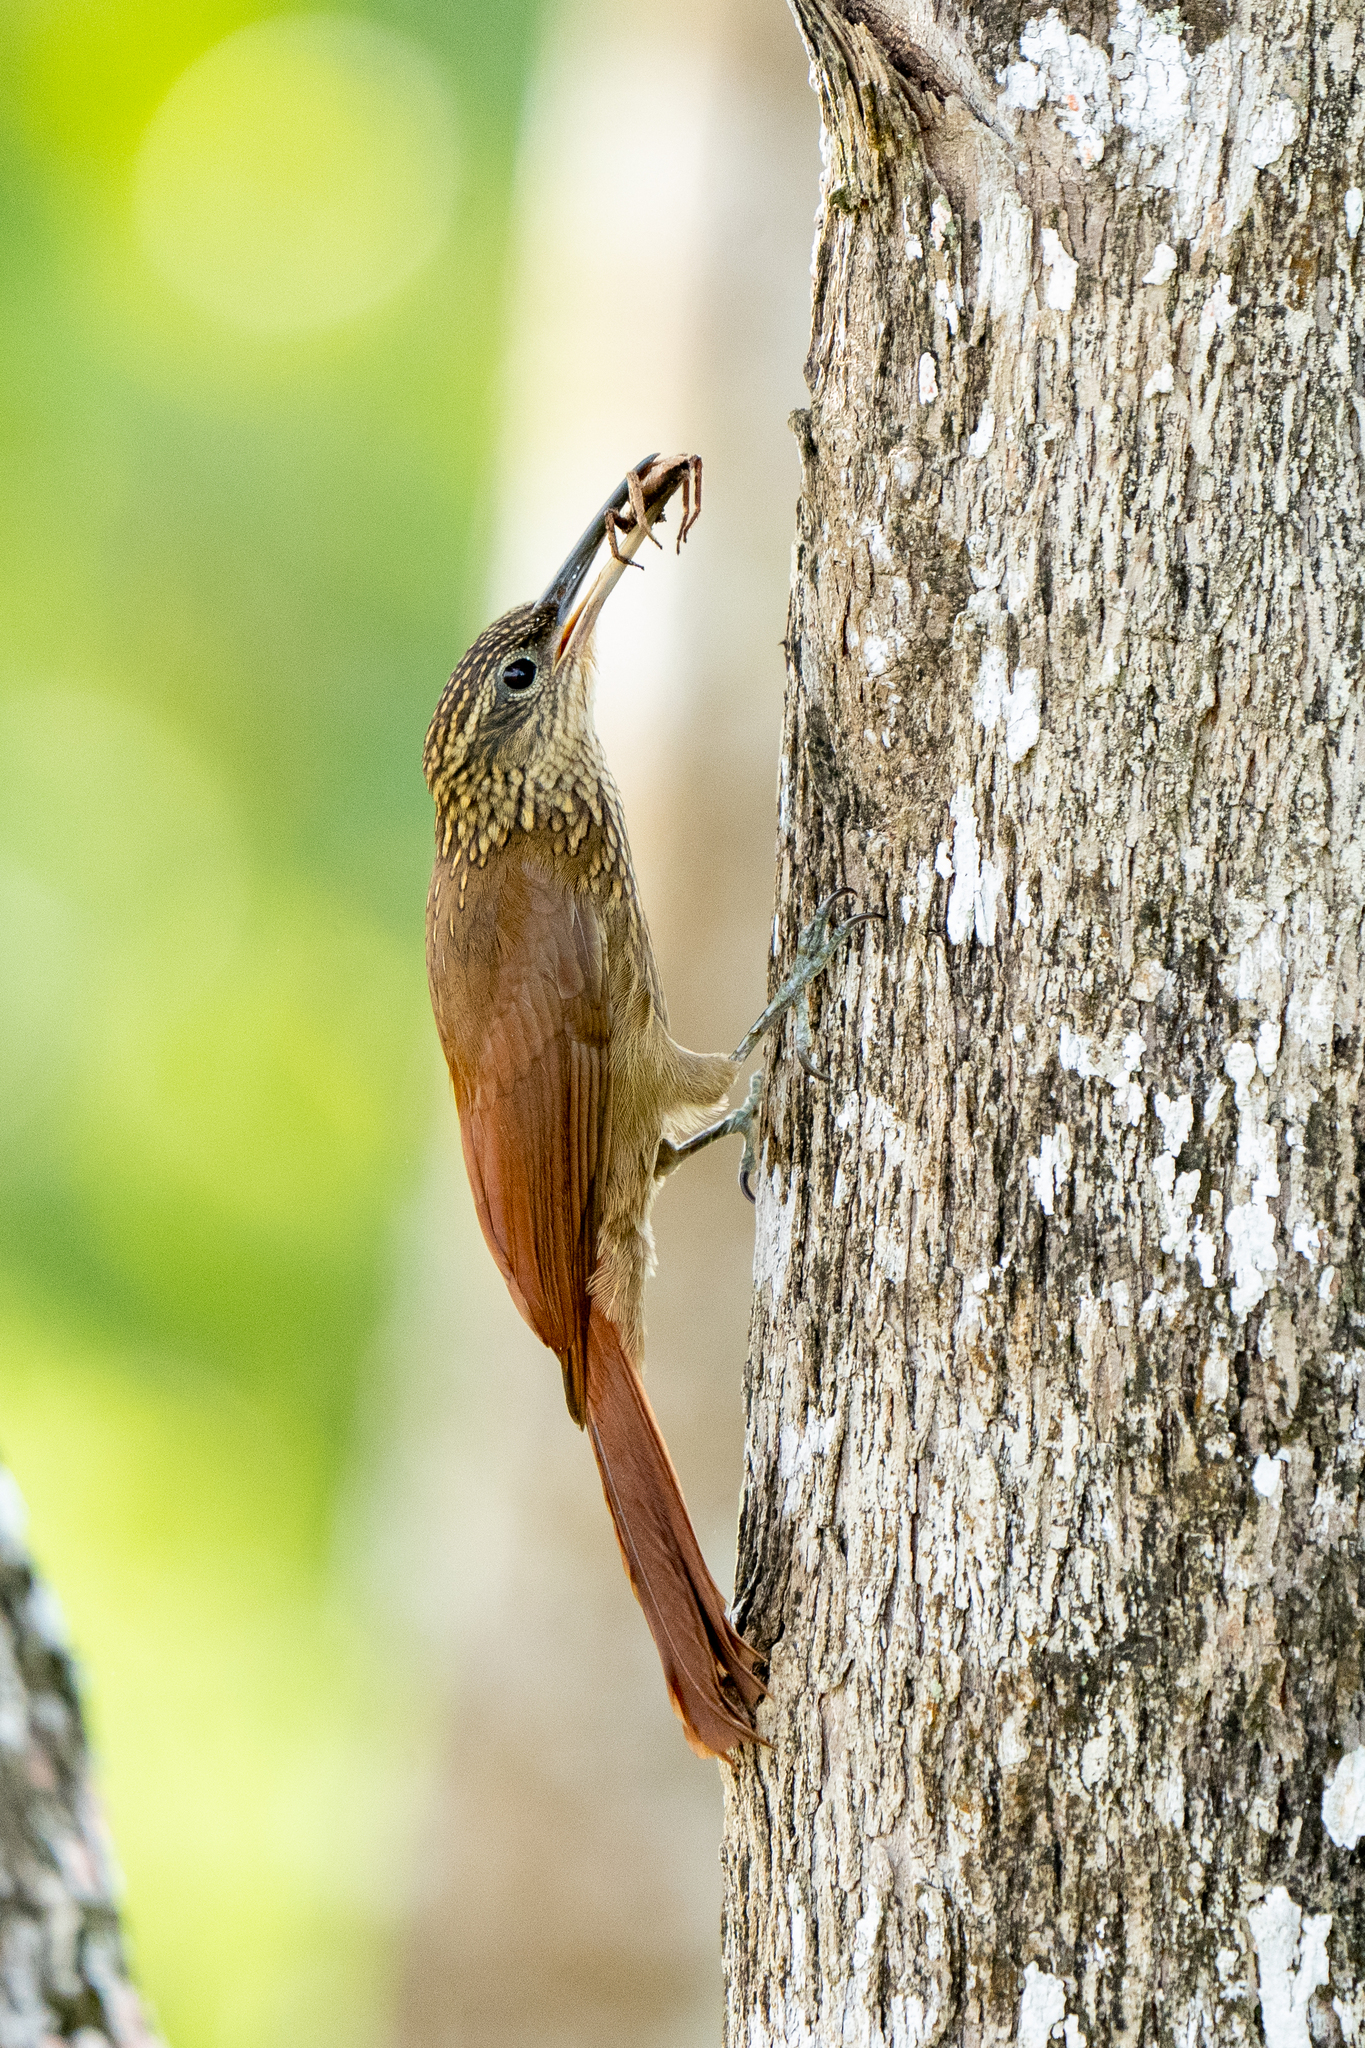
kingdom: Animalia
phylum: Chordata
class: Aves
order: Passeriformes
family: Furnariidae
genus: Xiphorhynchus
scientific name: Xiphorhynchus susurrans
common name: Cocoa woodcreeper
